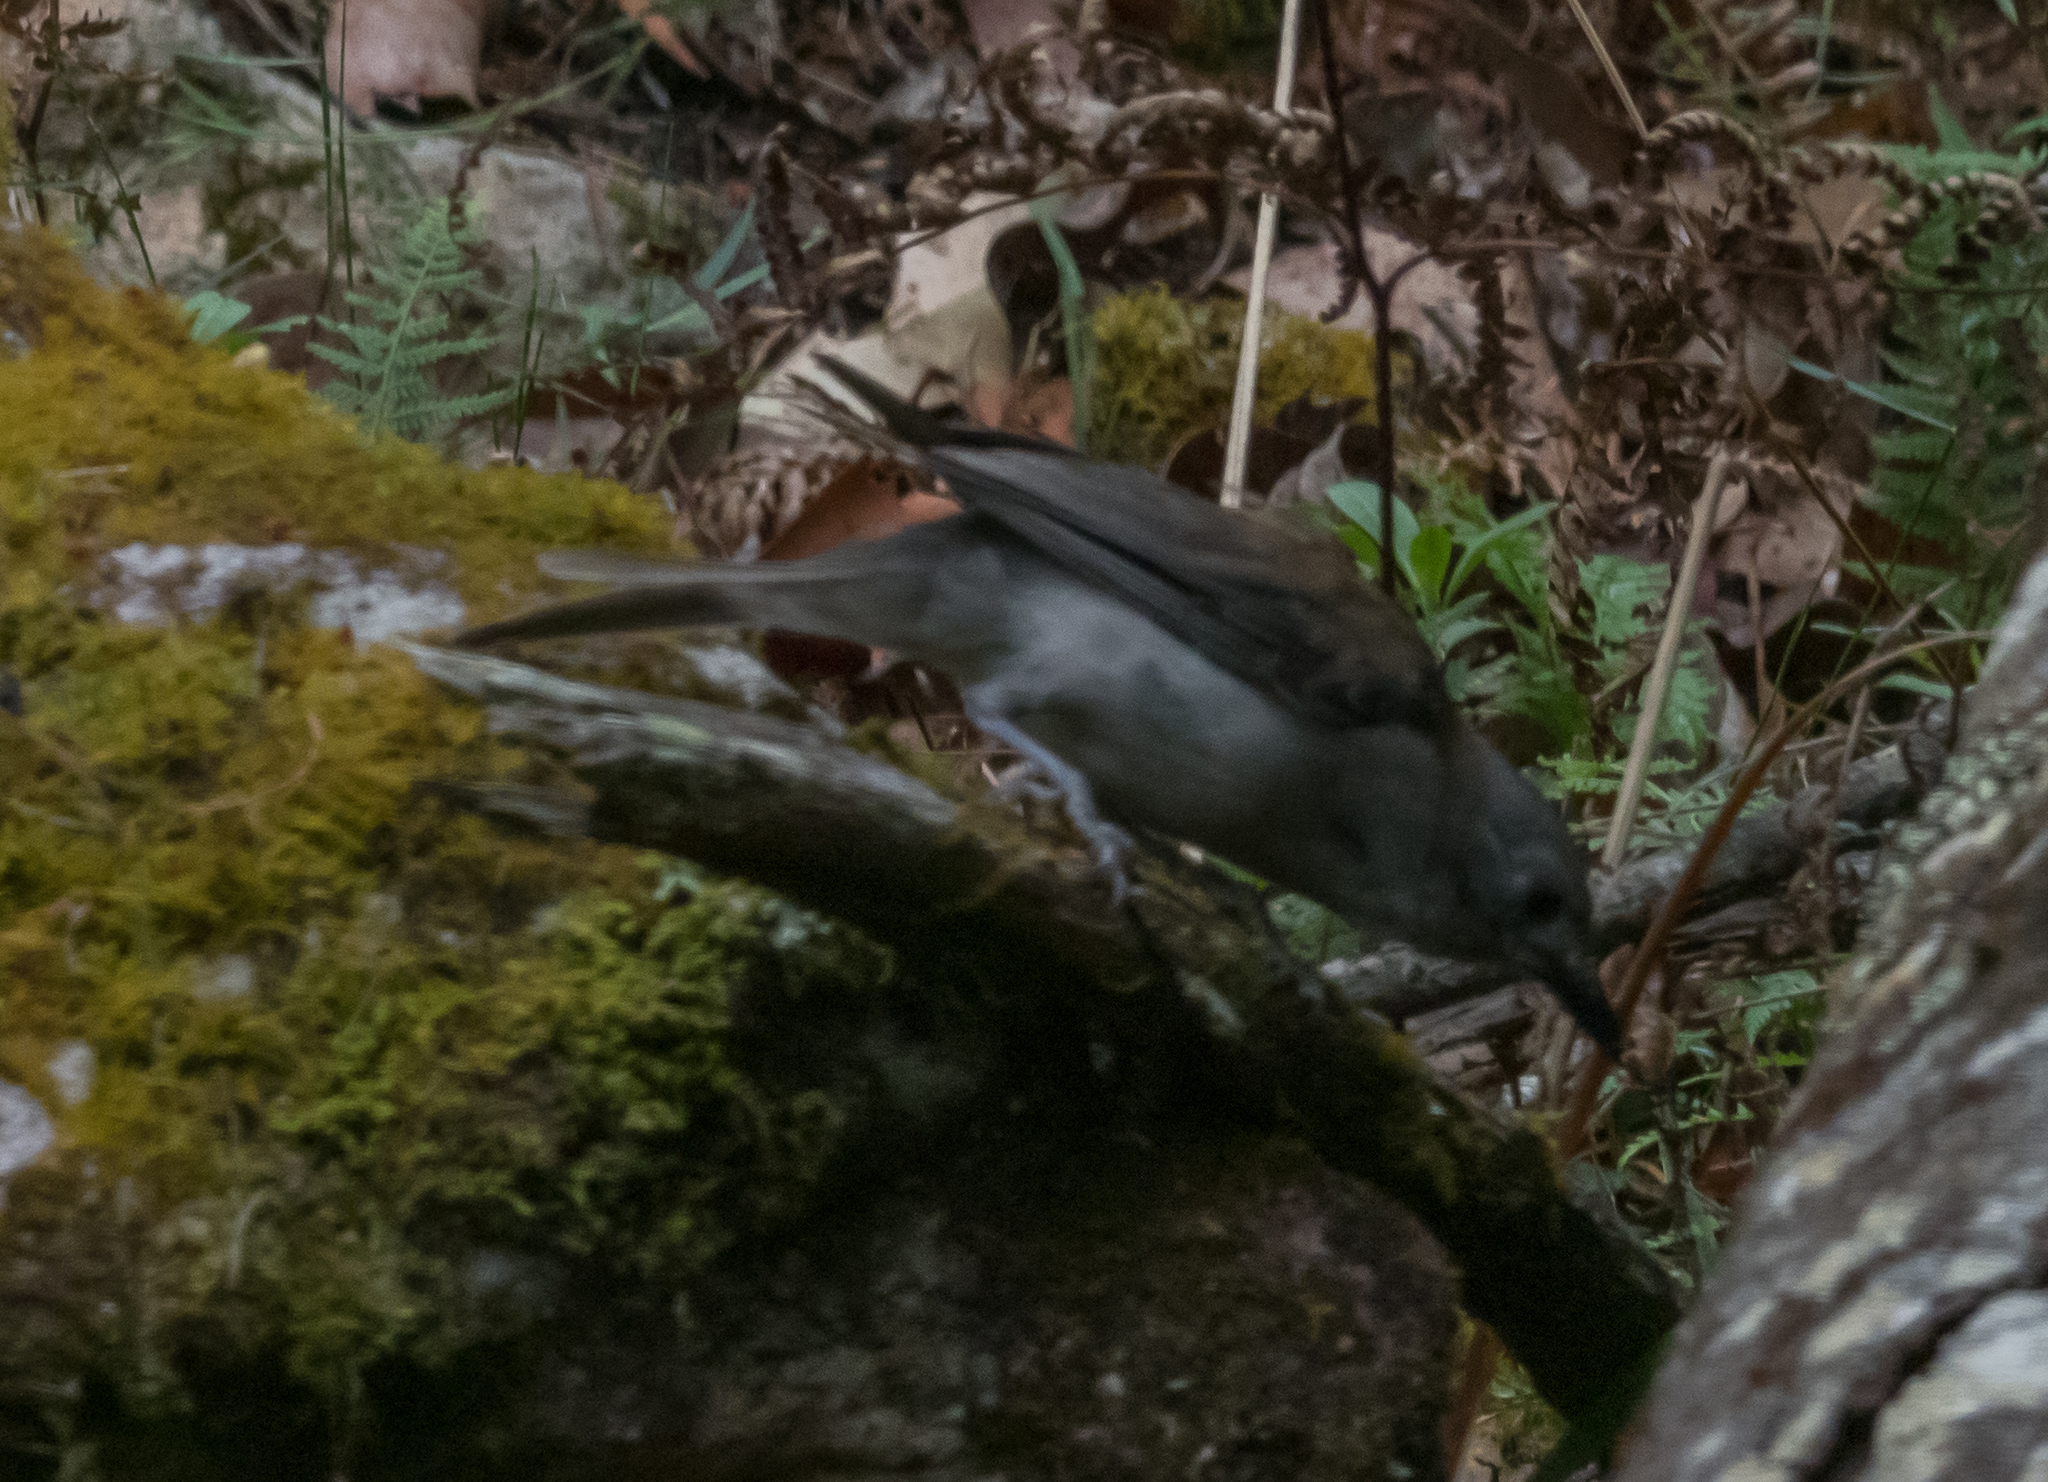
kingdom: Animalia
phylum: Chordata
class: Aves
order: Passeriformes
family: Pachycephalidae
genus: Colluricincla
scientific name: Colluricincla harmonica
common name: Grey shrikethrush
